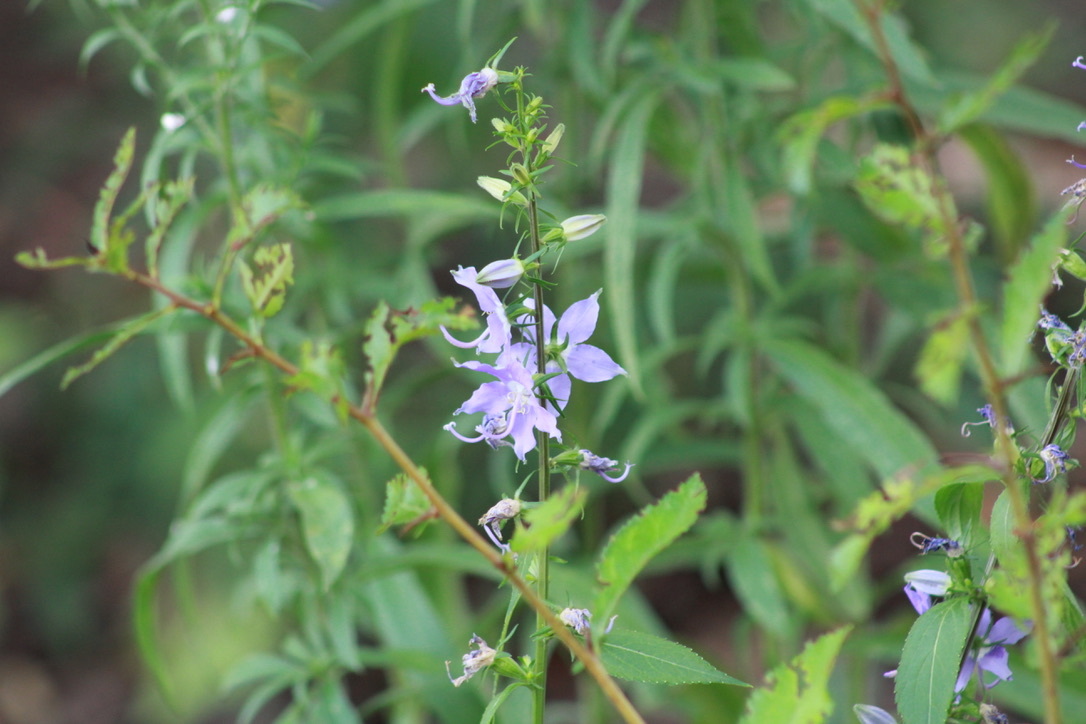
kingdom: Plantae
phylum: Tracheophyta
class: Magnoliopsida
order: Asterales
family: Campanulaceae
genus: Campanulastrum
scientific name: Campanulastrum americanum
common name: American bellflower
